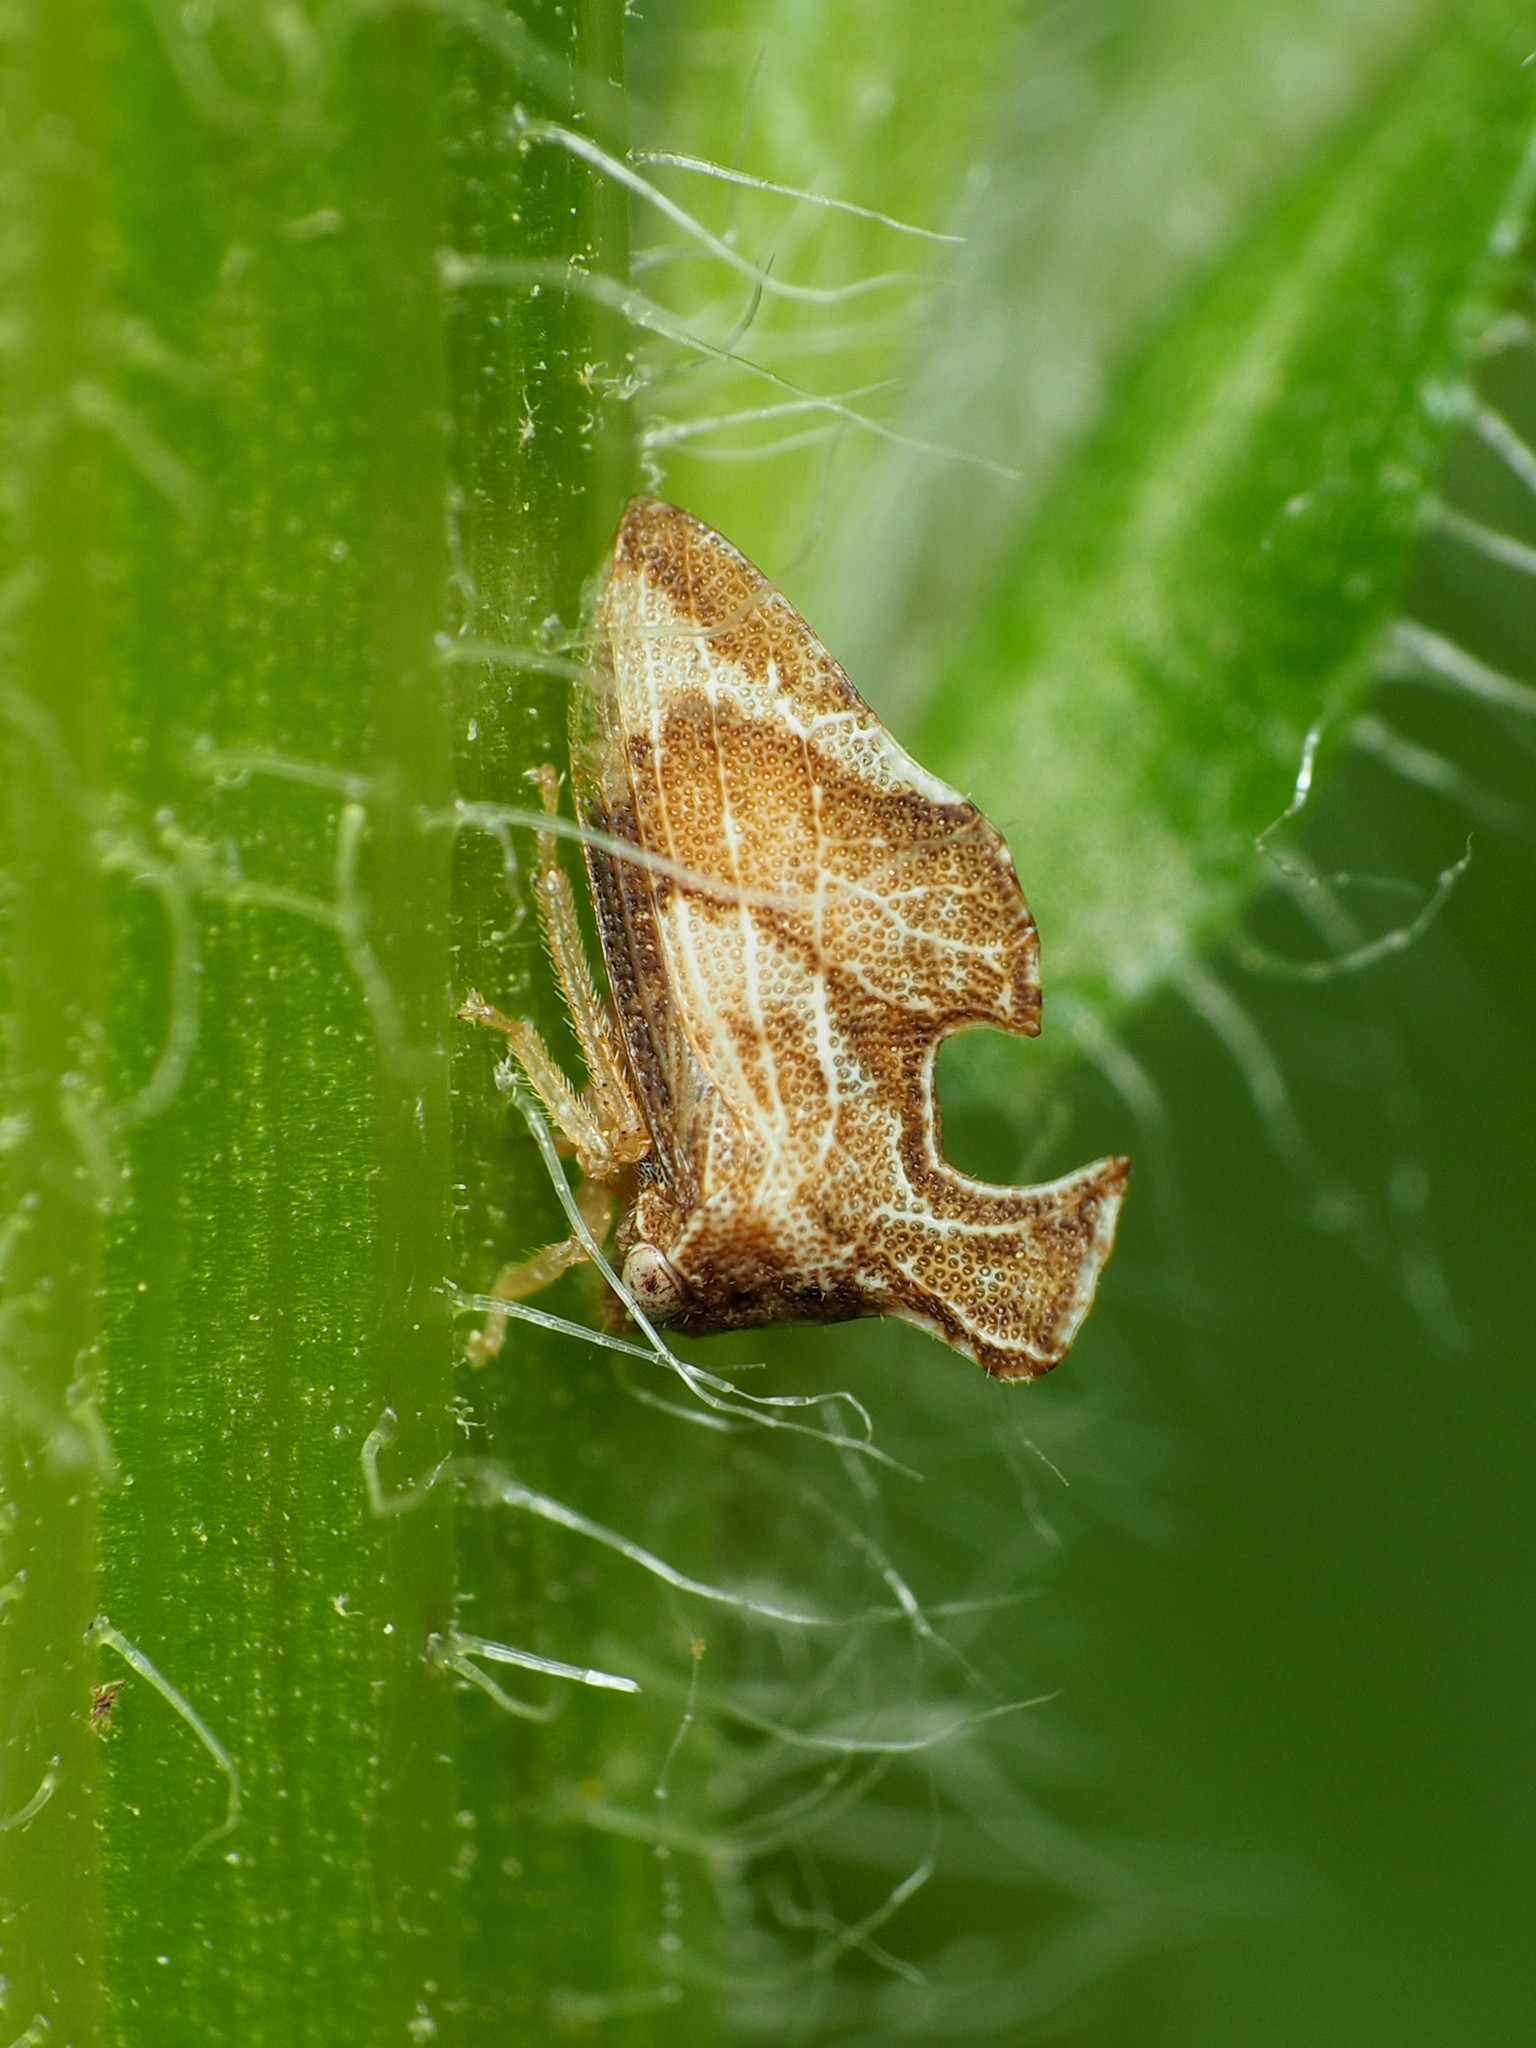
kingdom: Animalia
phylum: Arthropoda
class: Insecta
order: Hemiptera
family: Membracidae
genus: Entylia
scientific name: Entylia carinata
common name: Keeled treehopper
